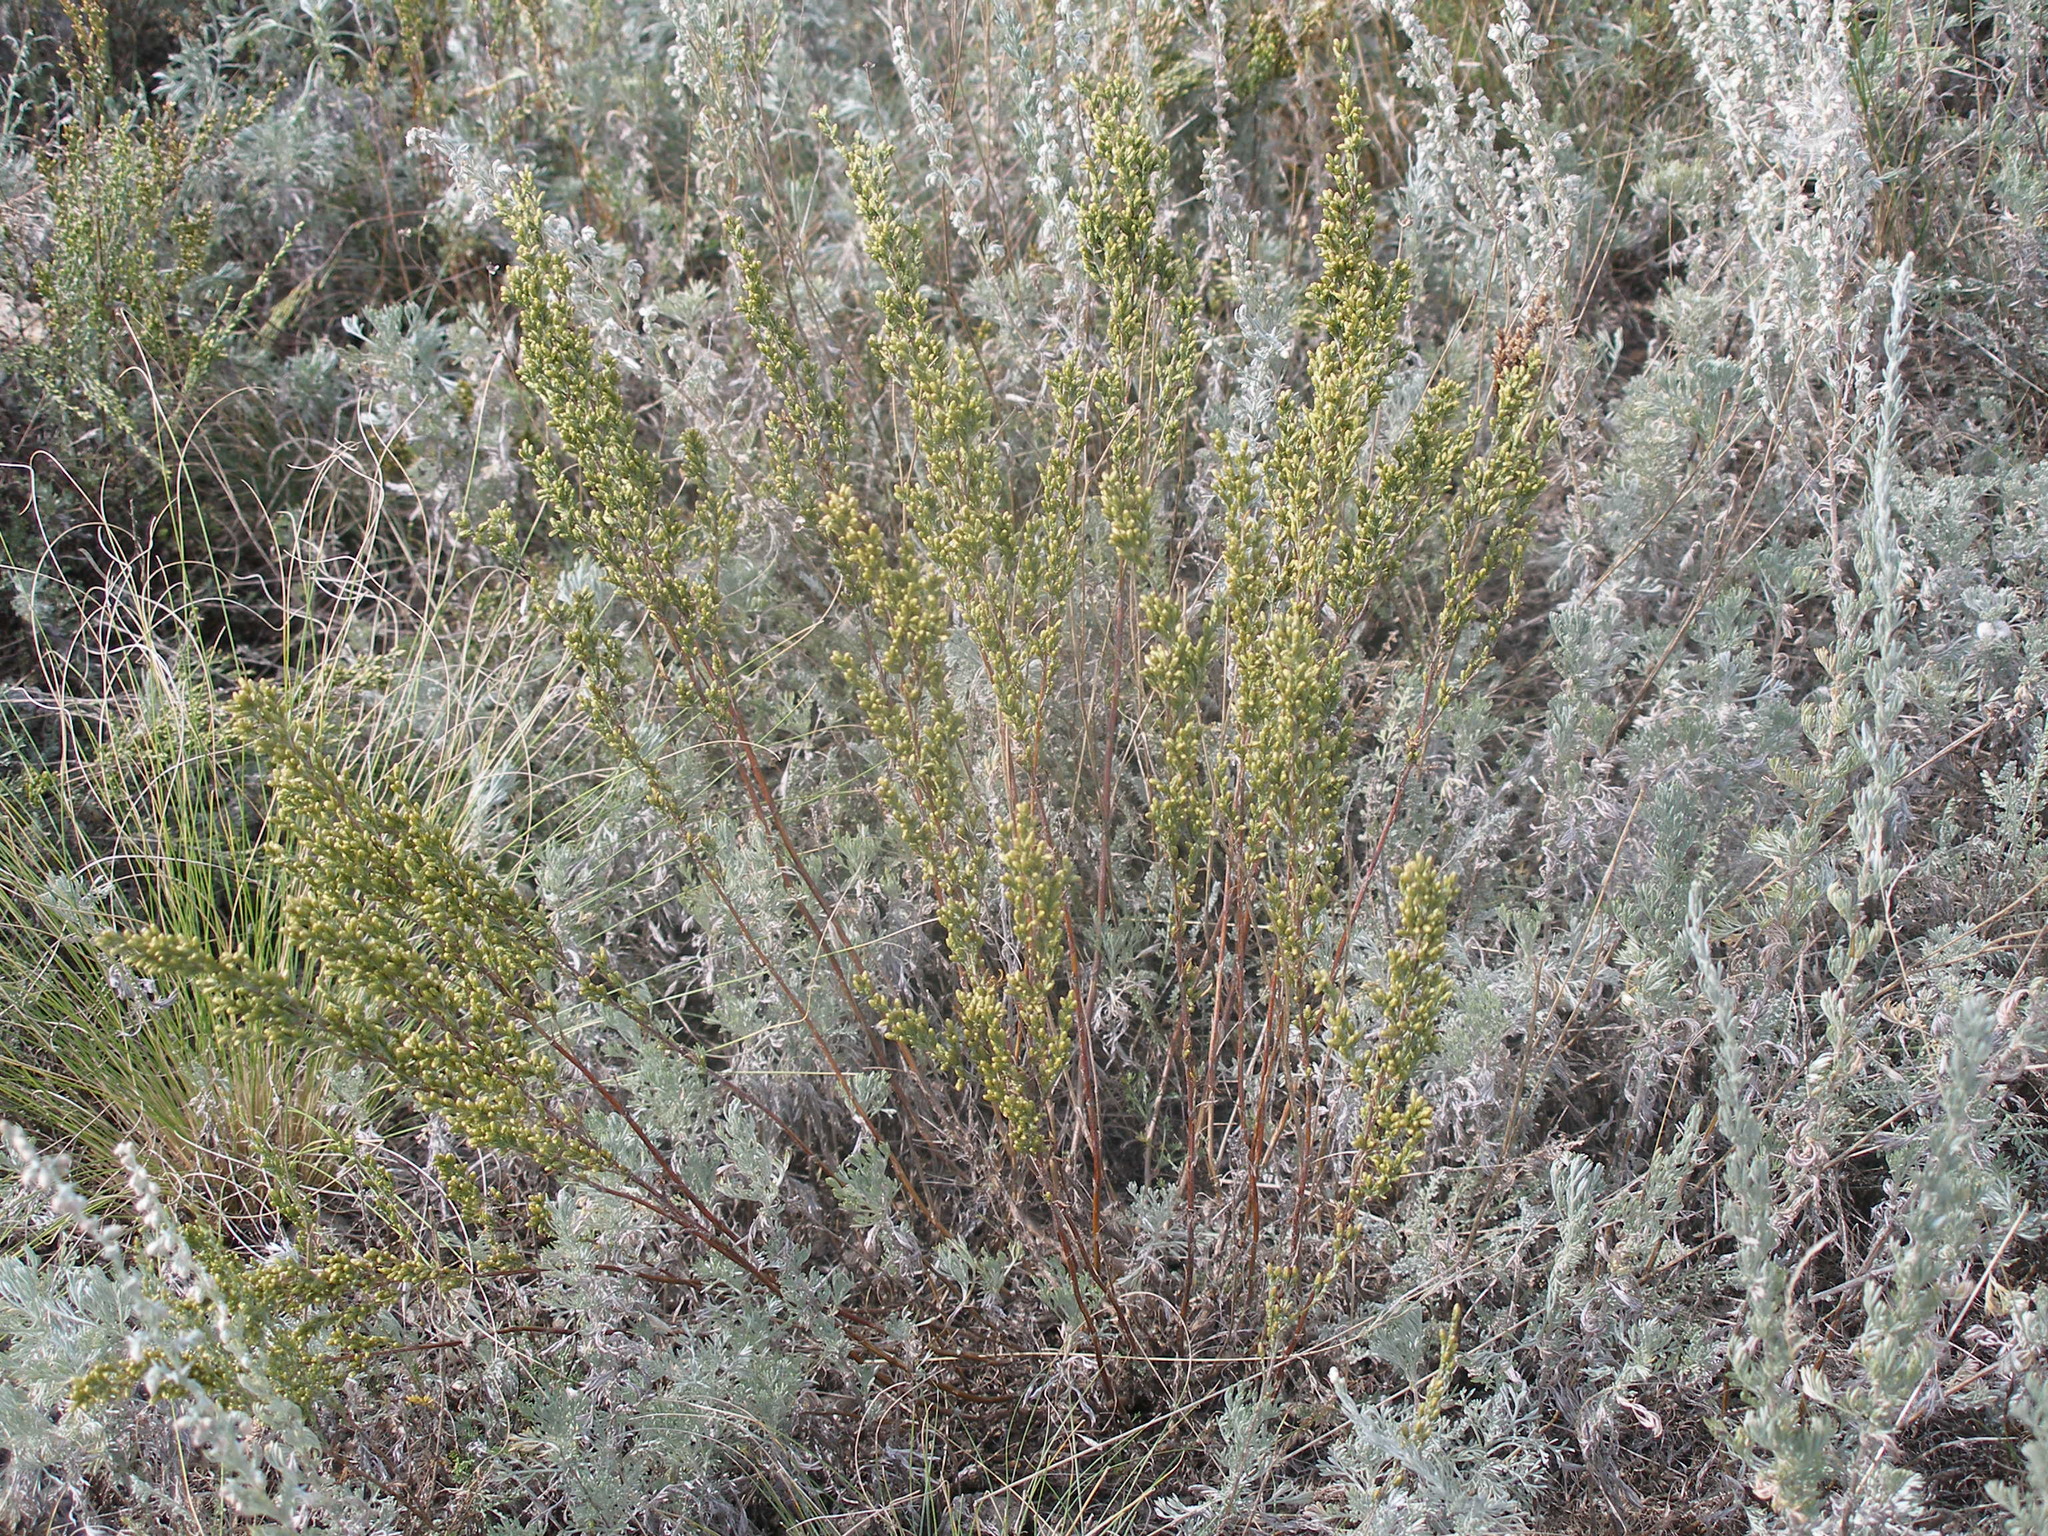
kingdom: Plantae
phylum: Tracheophyta
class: Magnoliopsida
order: Asterales
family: Asteraceae
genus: Artemisia
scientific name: Artemisia pauciflora
